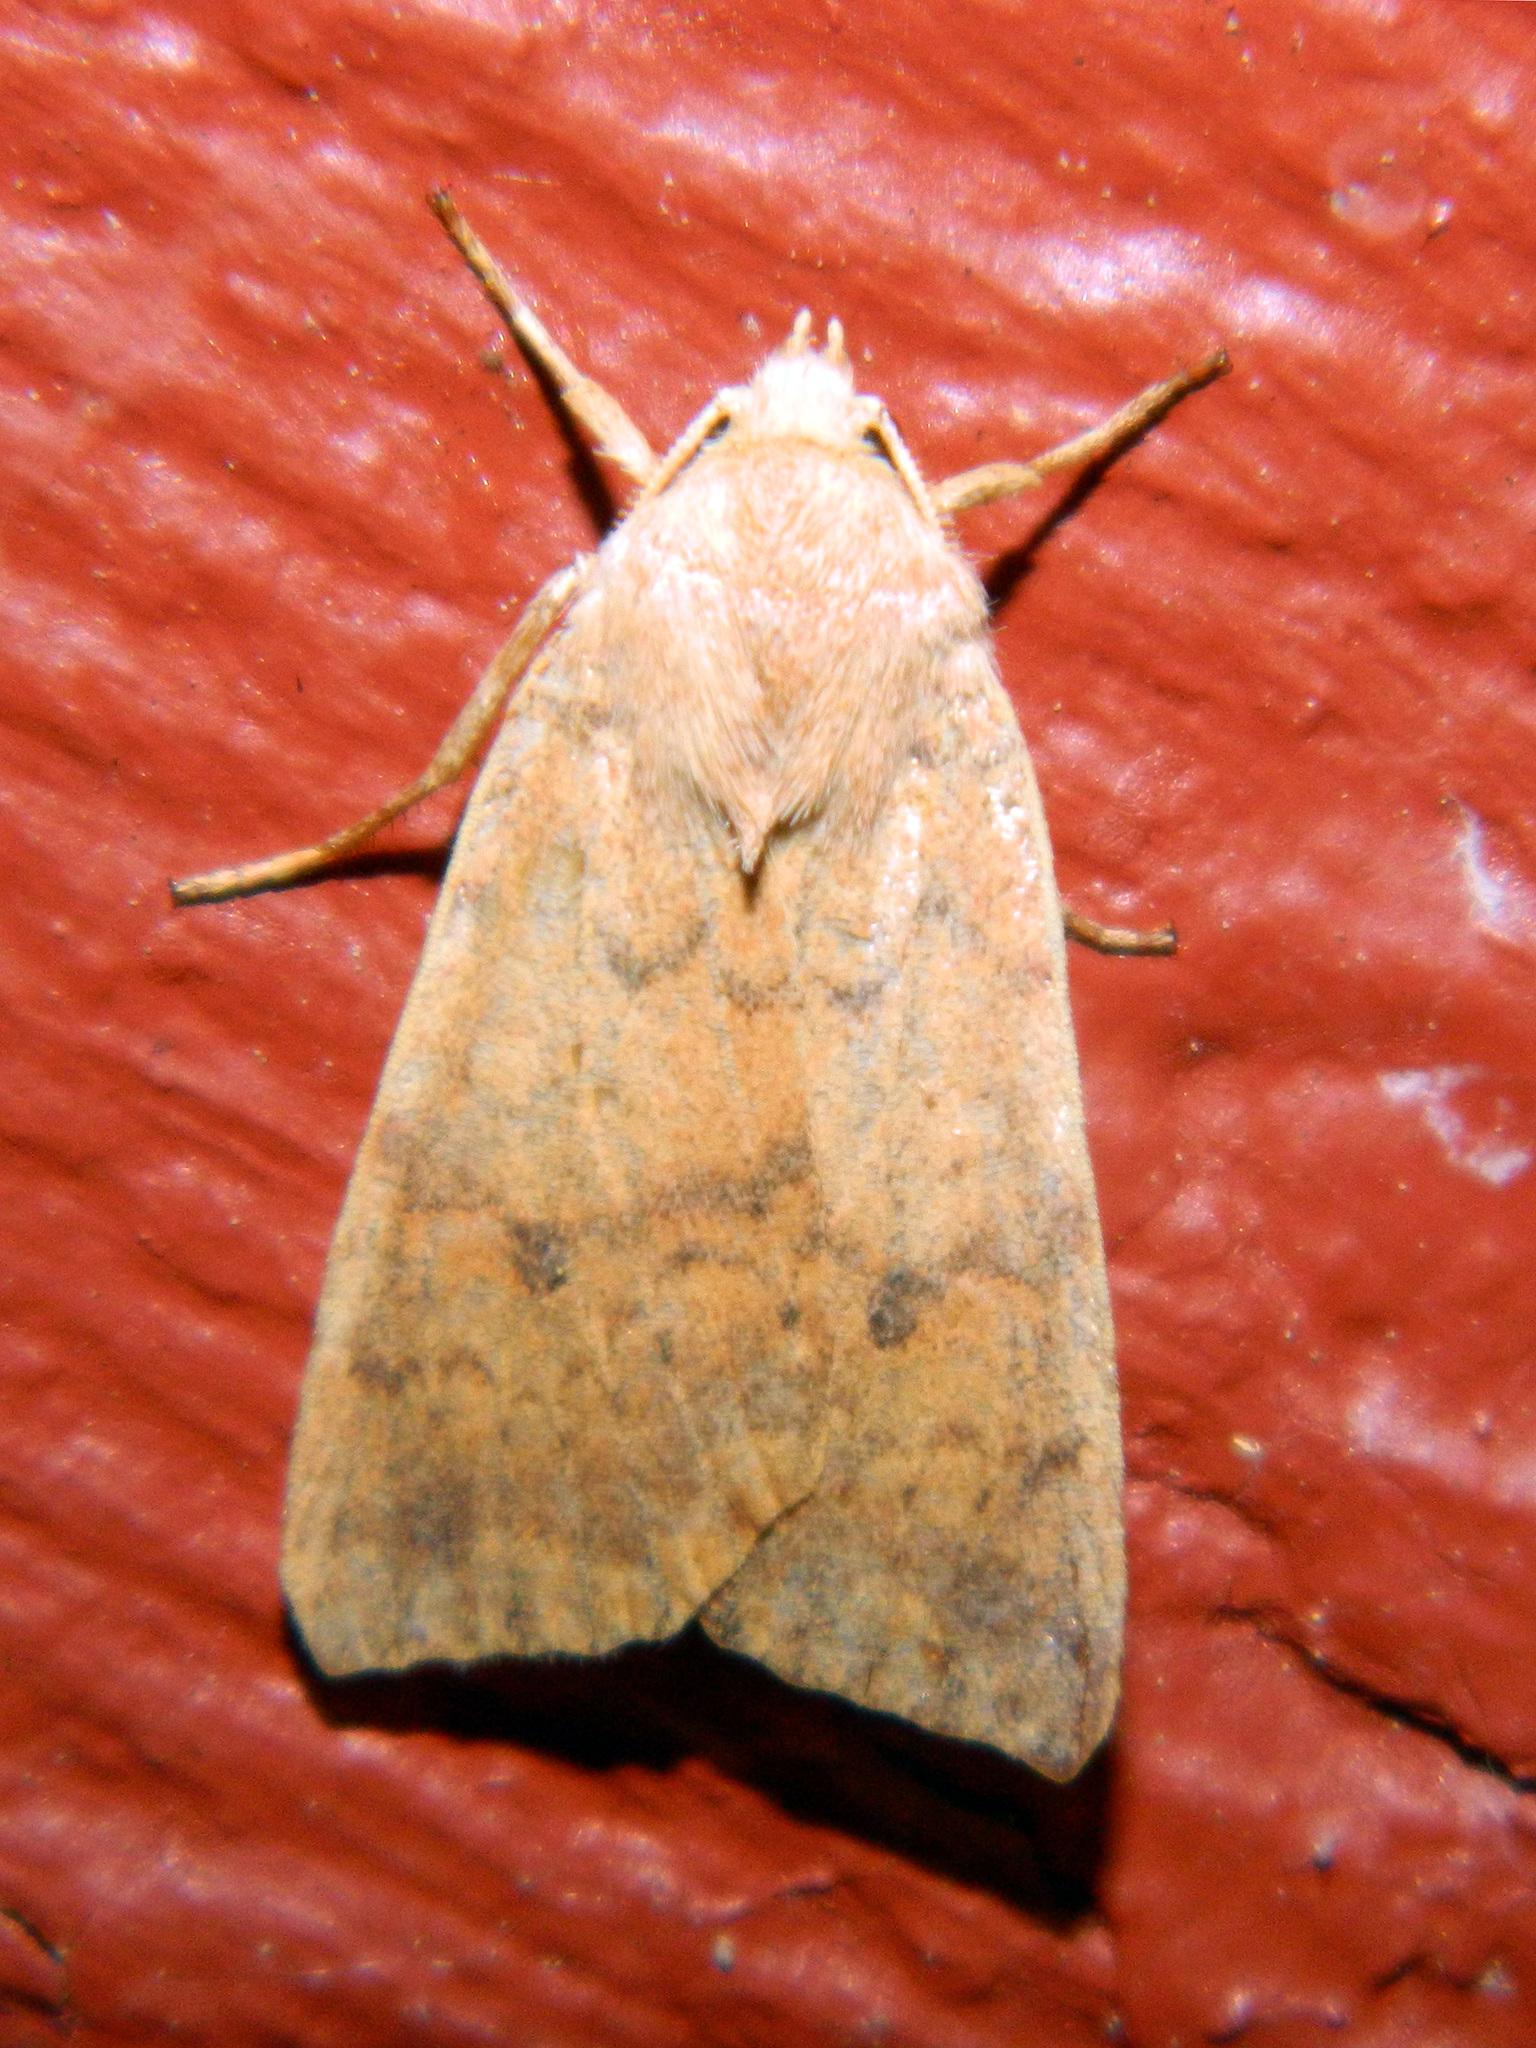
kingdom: Animalia
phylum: Arthropoda
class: Insecta
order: Lepidoptera
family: Noctuidae
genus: Agrochola
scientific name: Agrochola bicolorago
